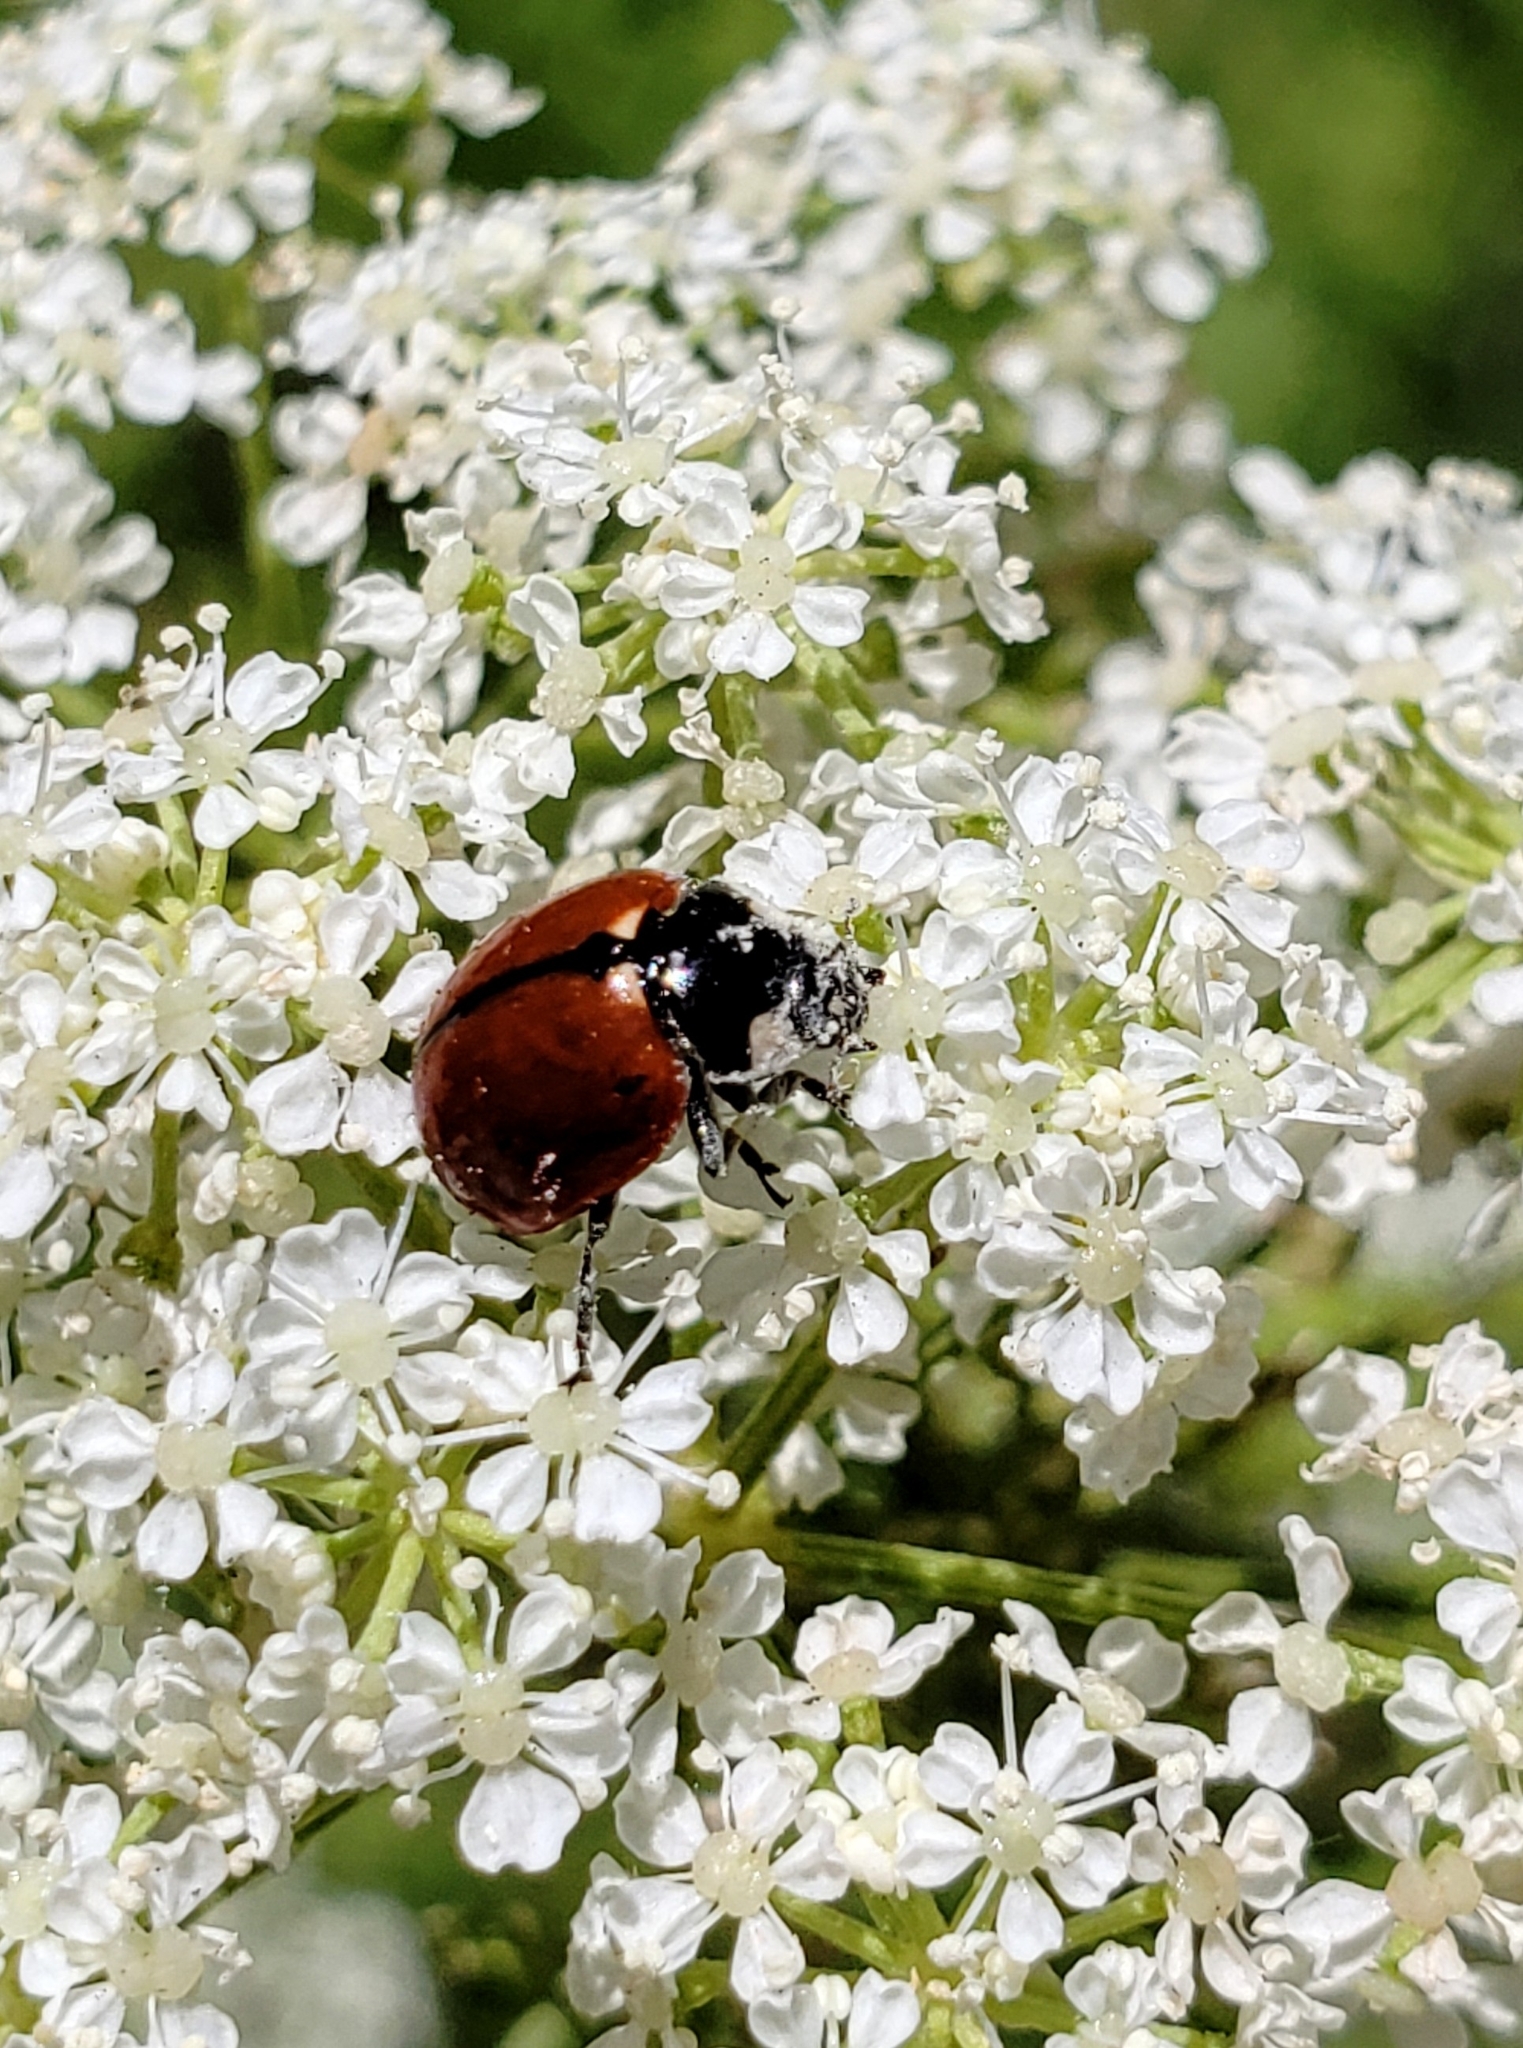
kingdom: Animalia
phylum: Arthropoda
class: Insecta
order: Coleoptera
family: Coccinellidae
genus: Coccinella
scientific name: Coccinella californica
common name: Lady beetle
